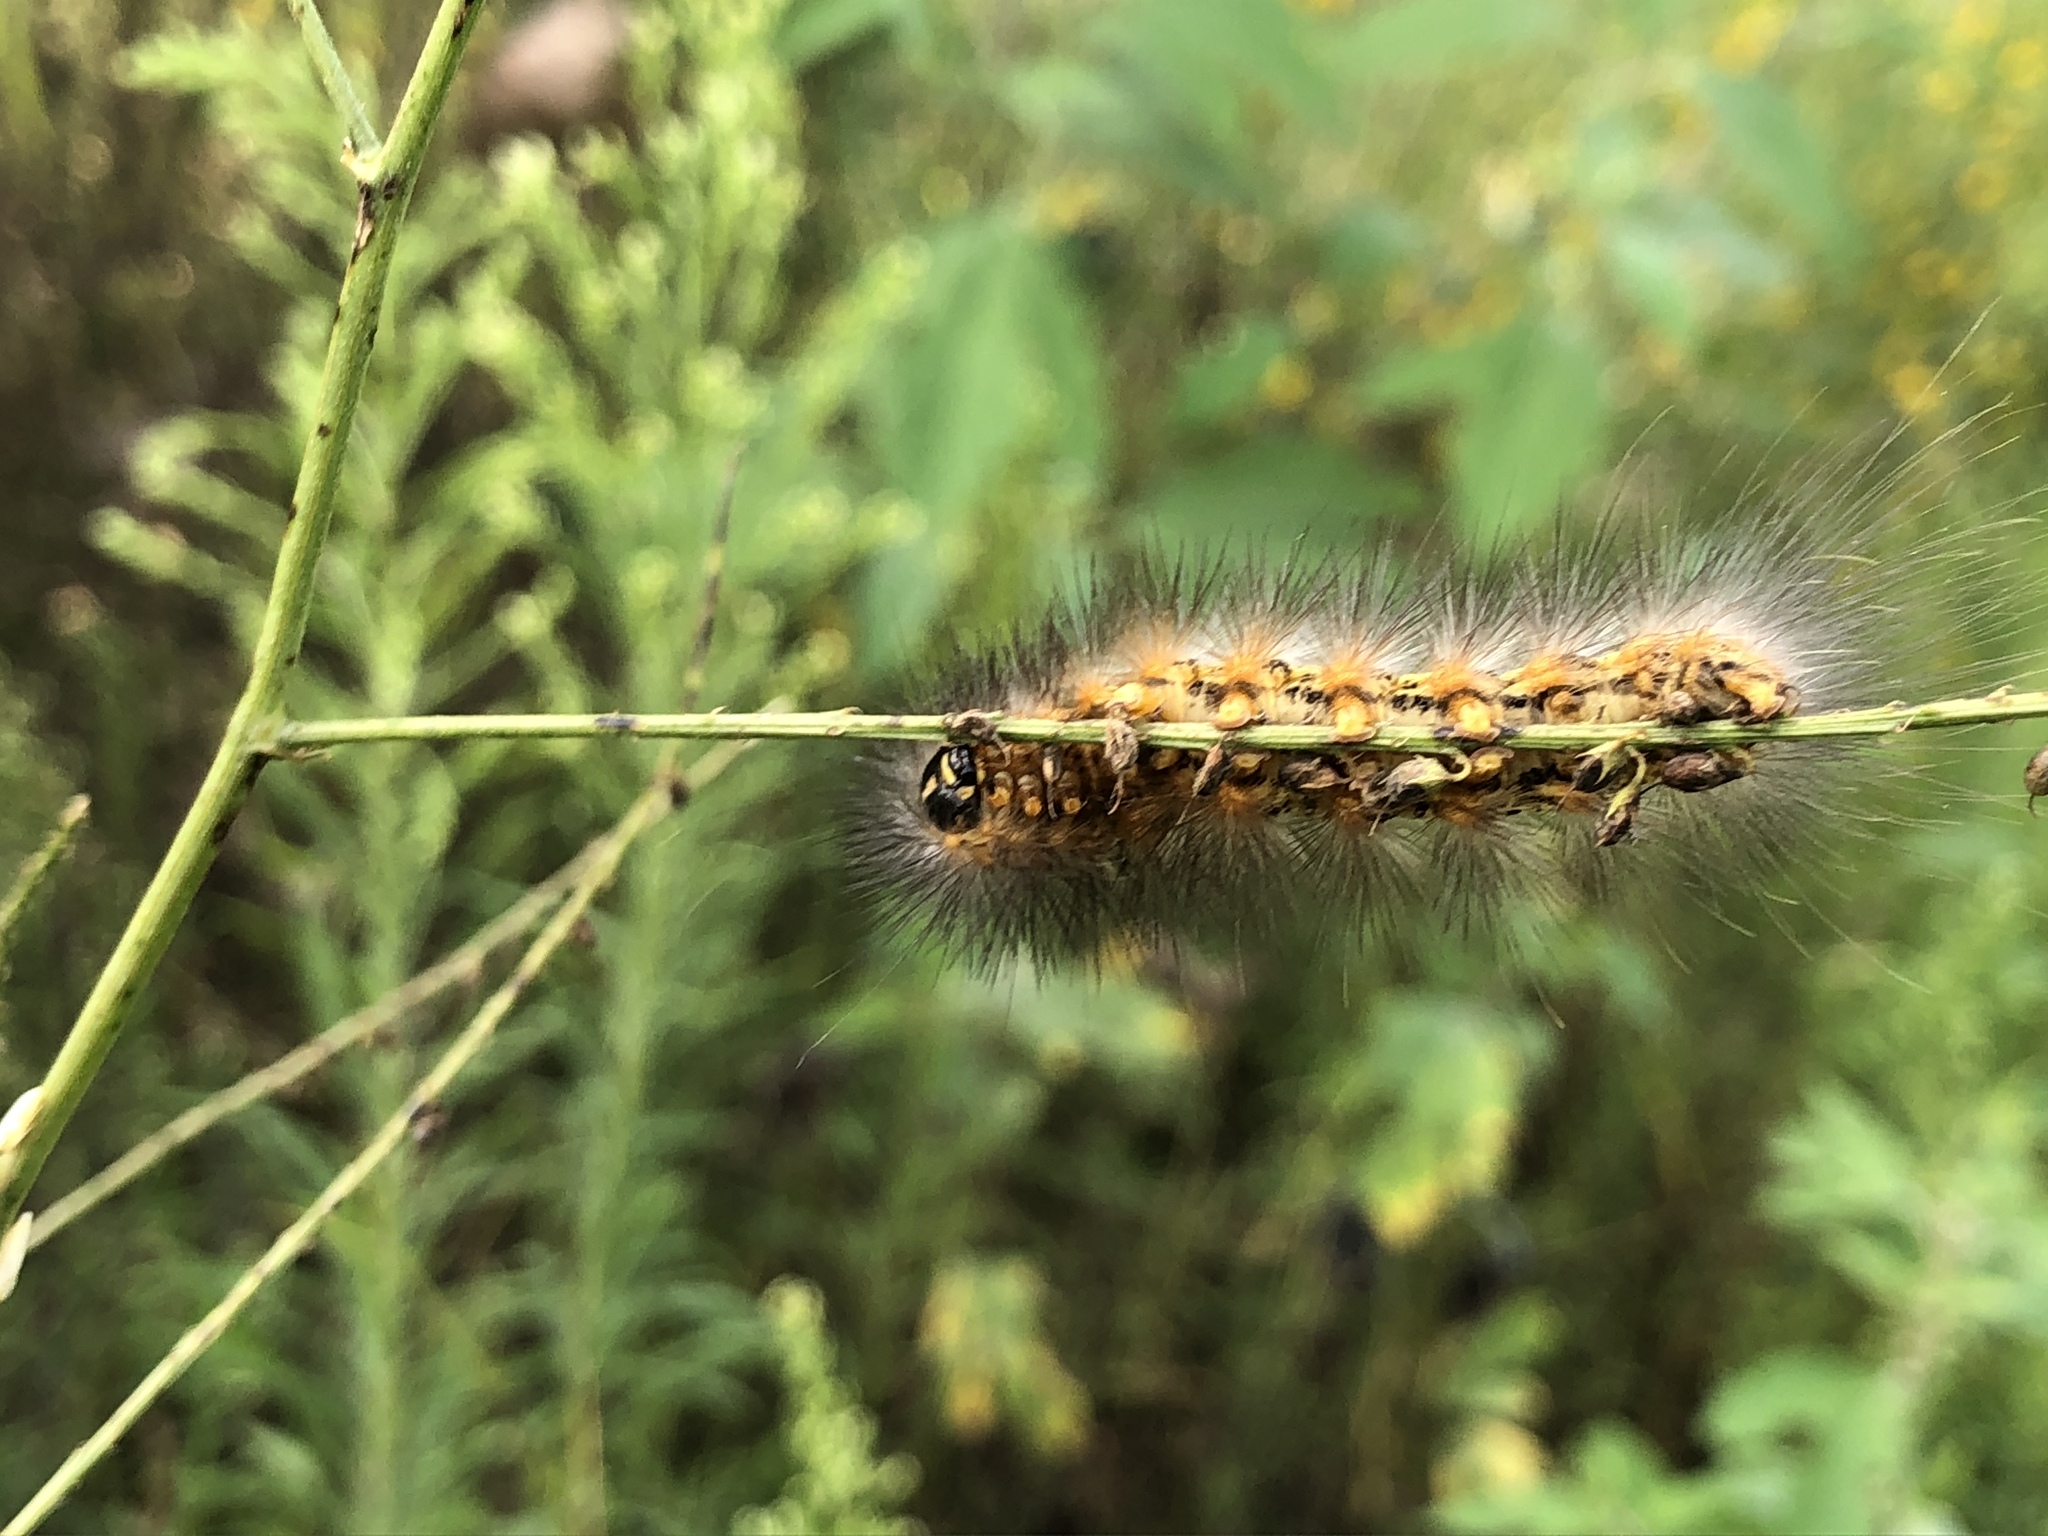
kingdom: Animalia
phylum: Arthropoda
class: Insecta
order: Lepidoptera
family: Erebidae
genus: Estigmene
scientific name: Estigmene acrea
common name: Salt marsh moth
